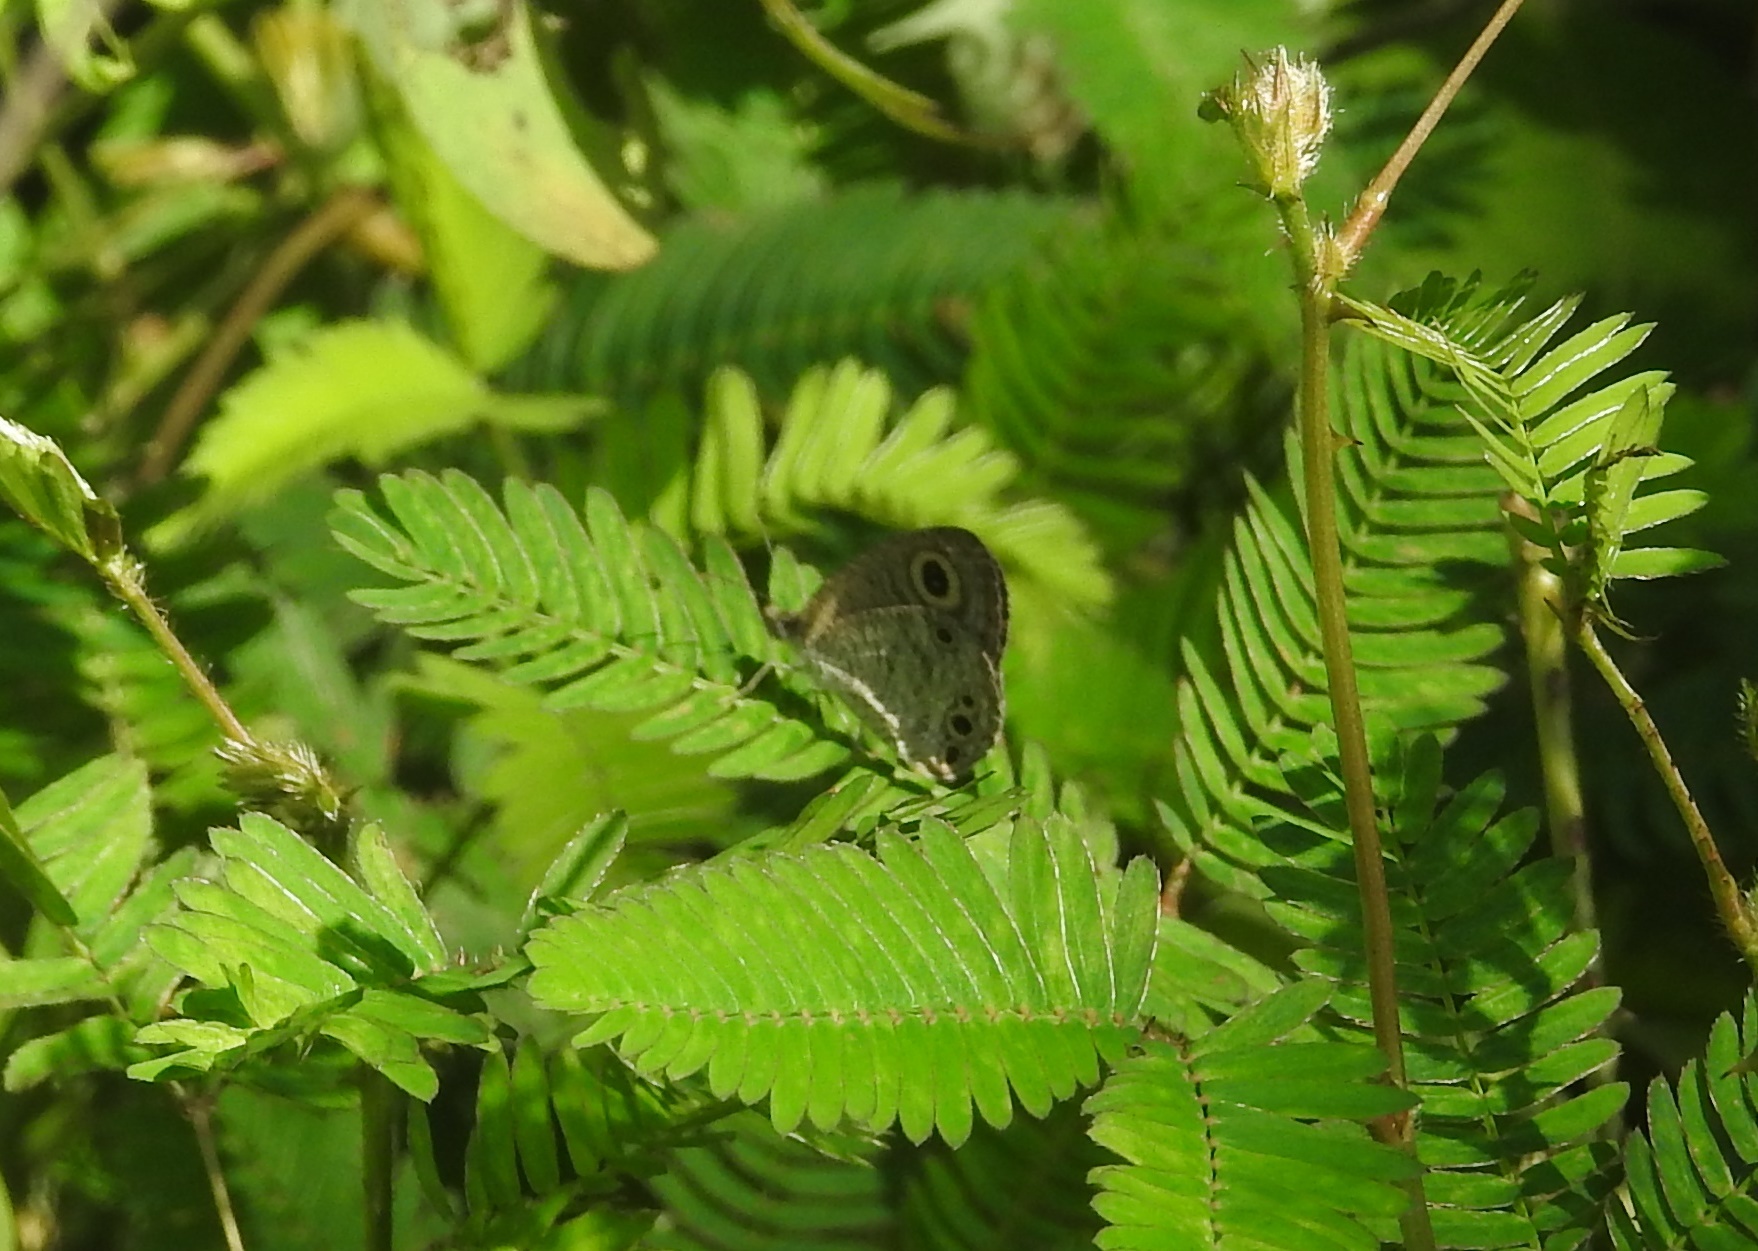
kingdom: Animalia
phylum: Arthropoda
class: Insecta
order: Lepidoptera
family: Nymphalidae
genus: Ypthima
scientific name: Ypthima huebneri
